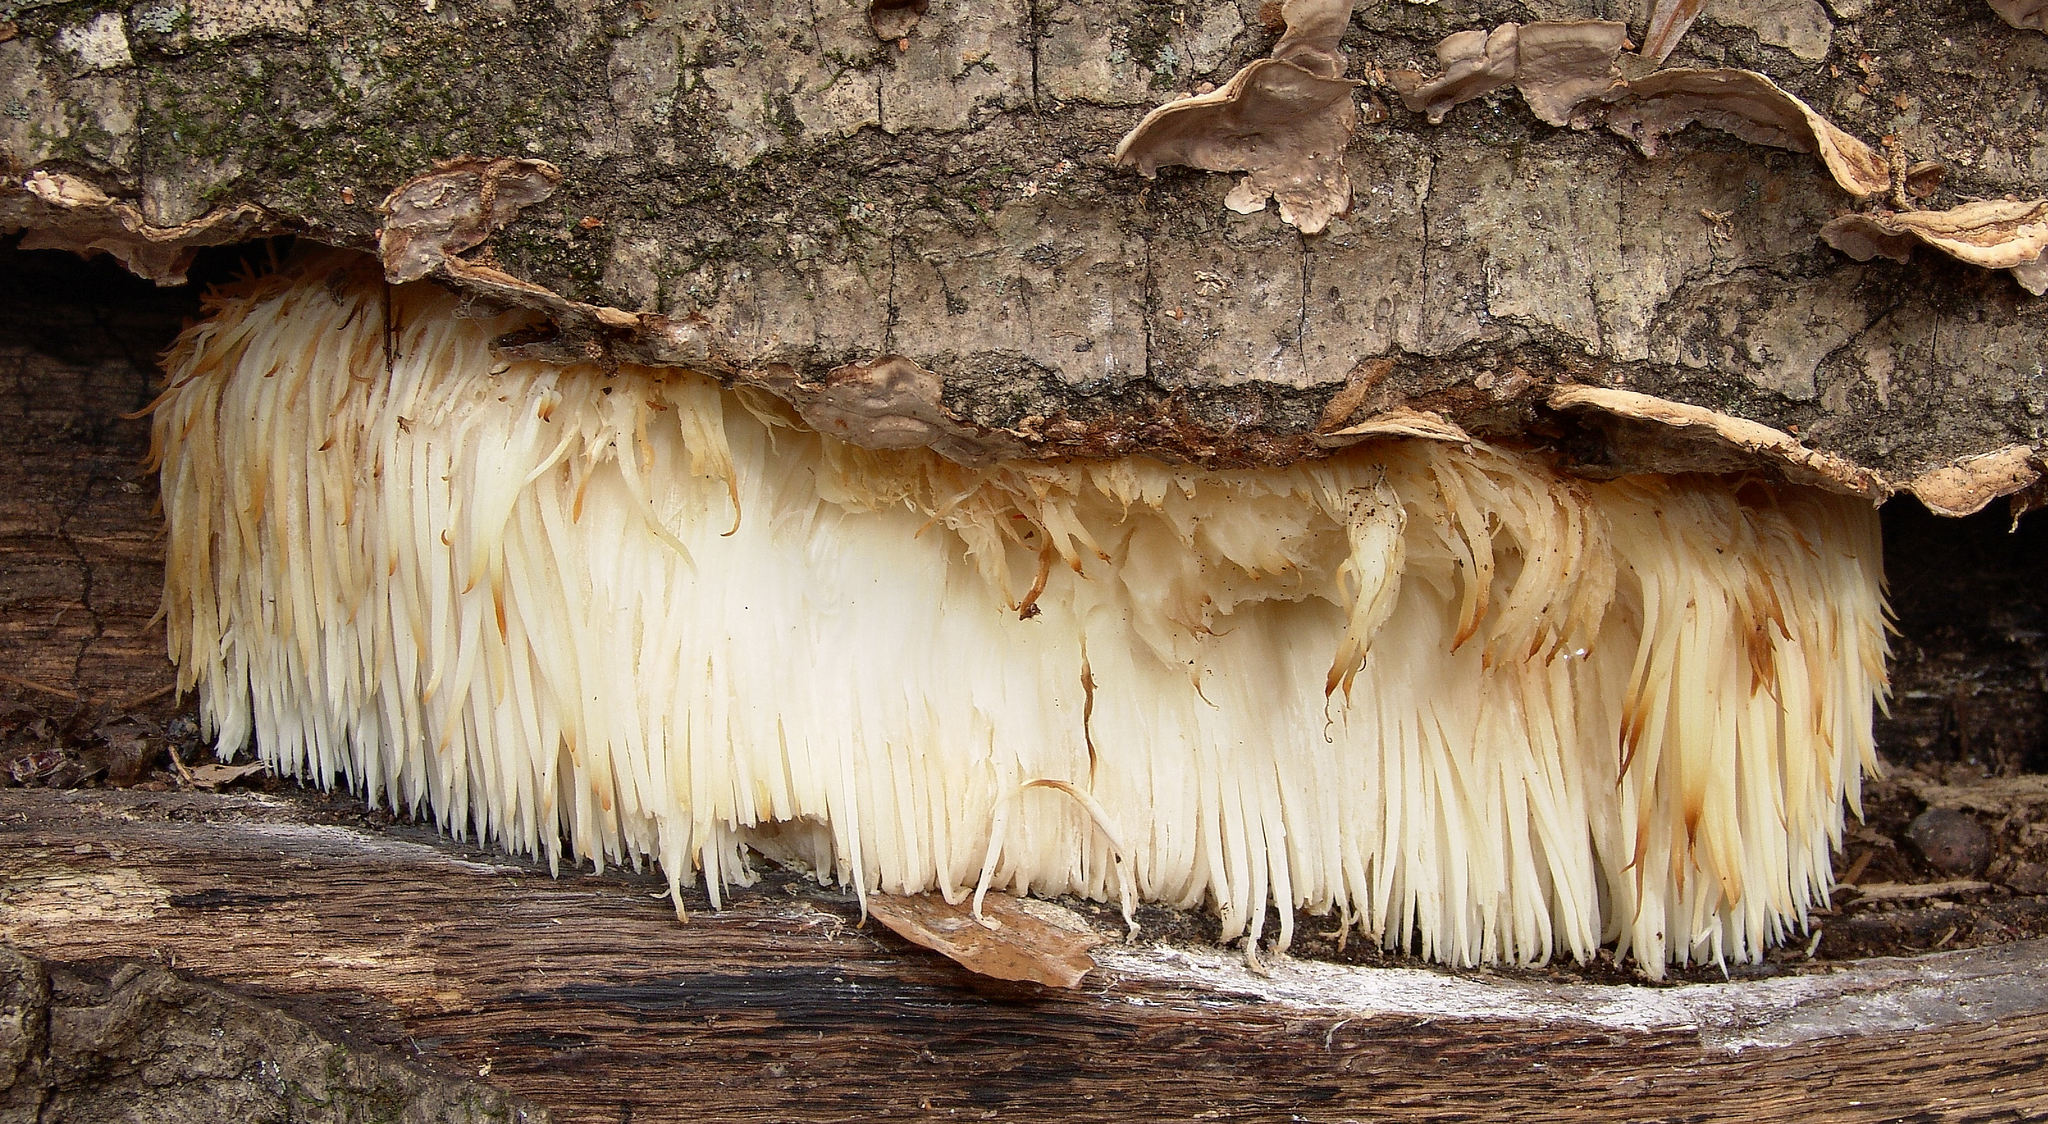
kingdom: Fungi
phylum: Basidiomycota
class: Agaricomycetes
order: Russulales
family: Hericiaceae
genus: Hericium
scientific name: Hericium erinaceus
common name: Bearded tooth
